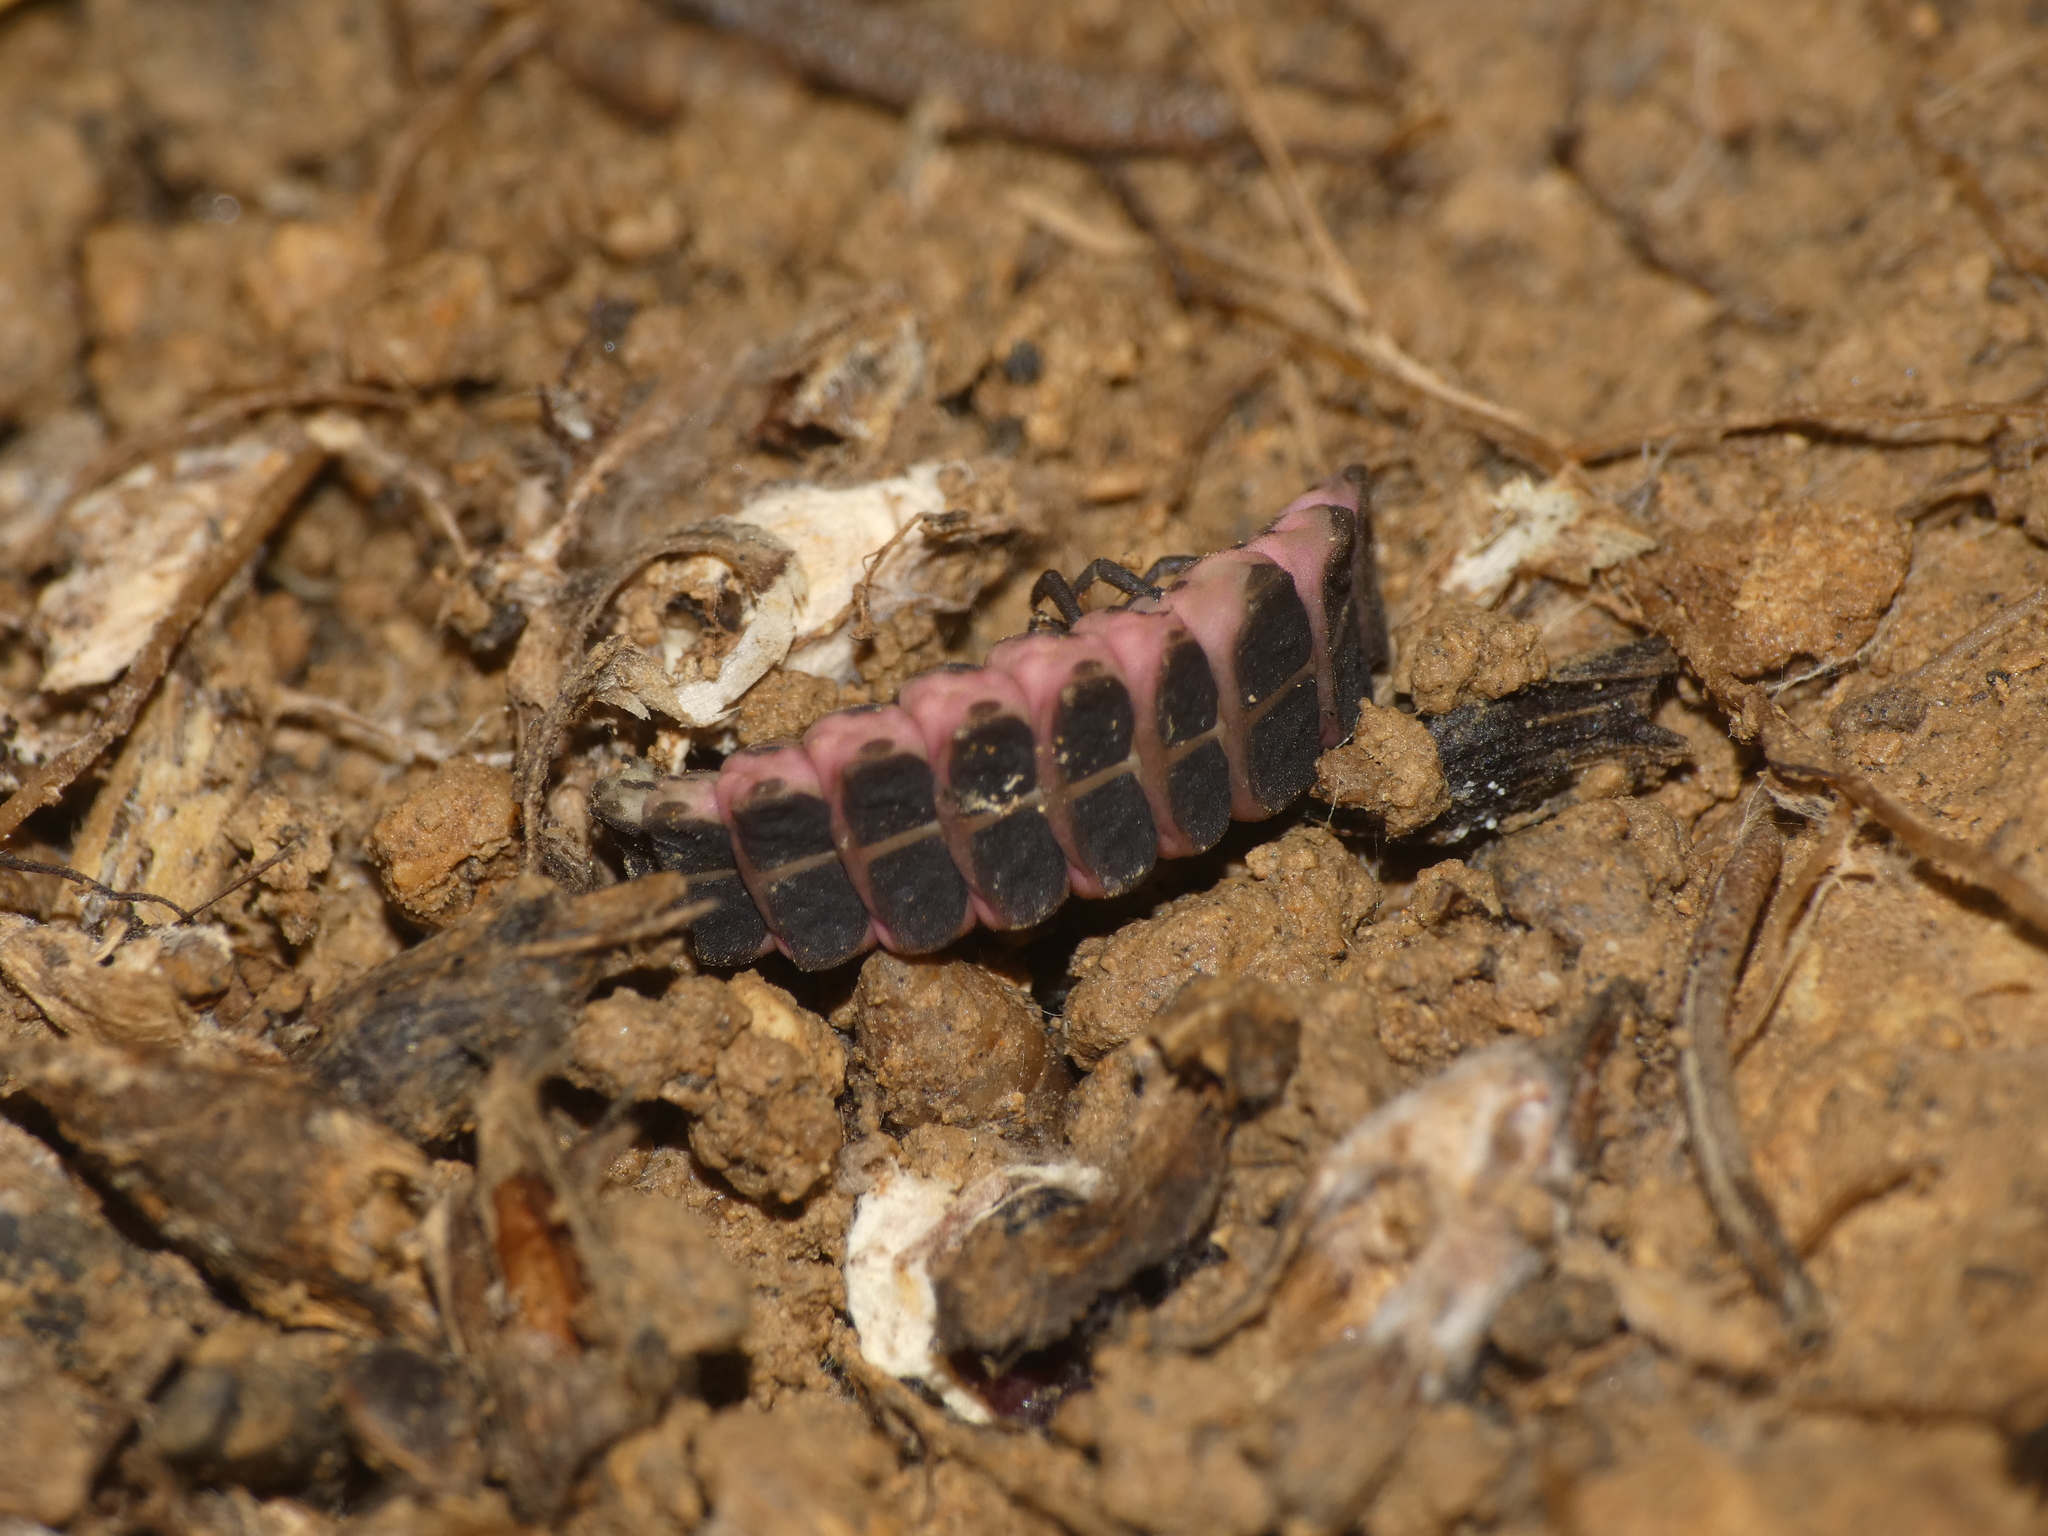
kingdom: Animalia
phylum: Arthropoda
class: Insecta
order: Coleoptera
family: Lampyridae
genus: Nyctophila
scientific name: Nyctophila reichii
